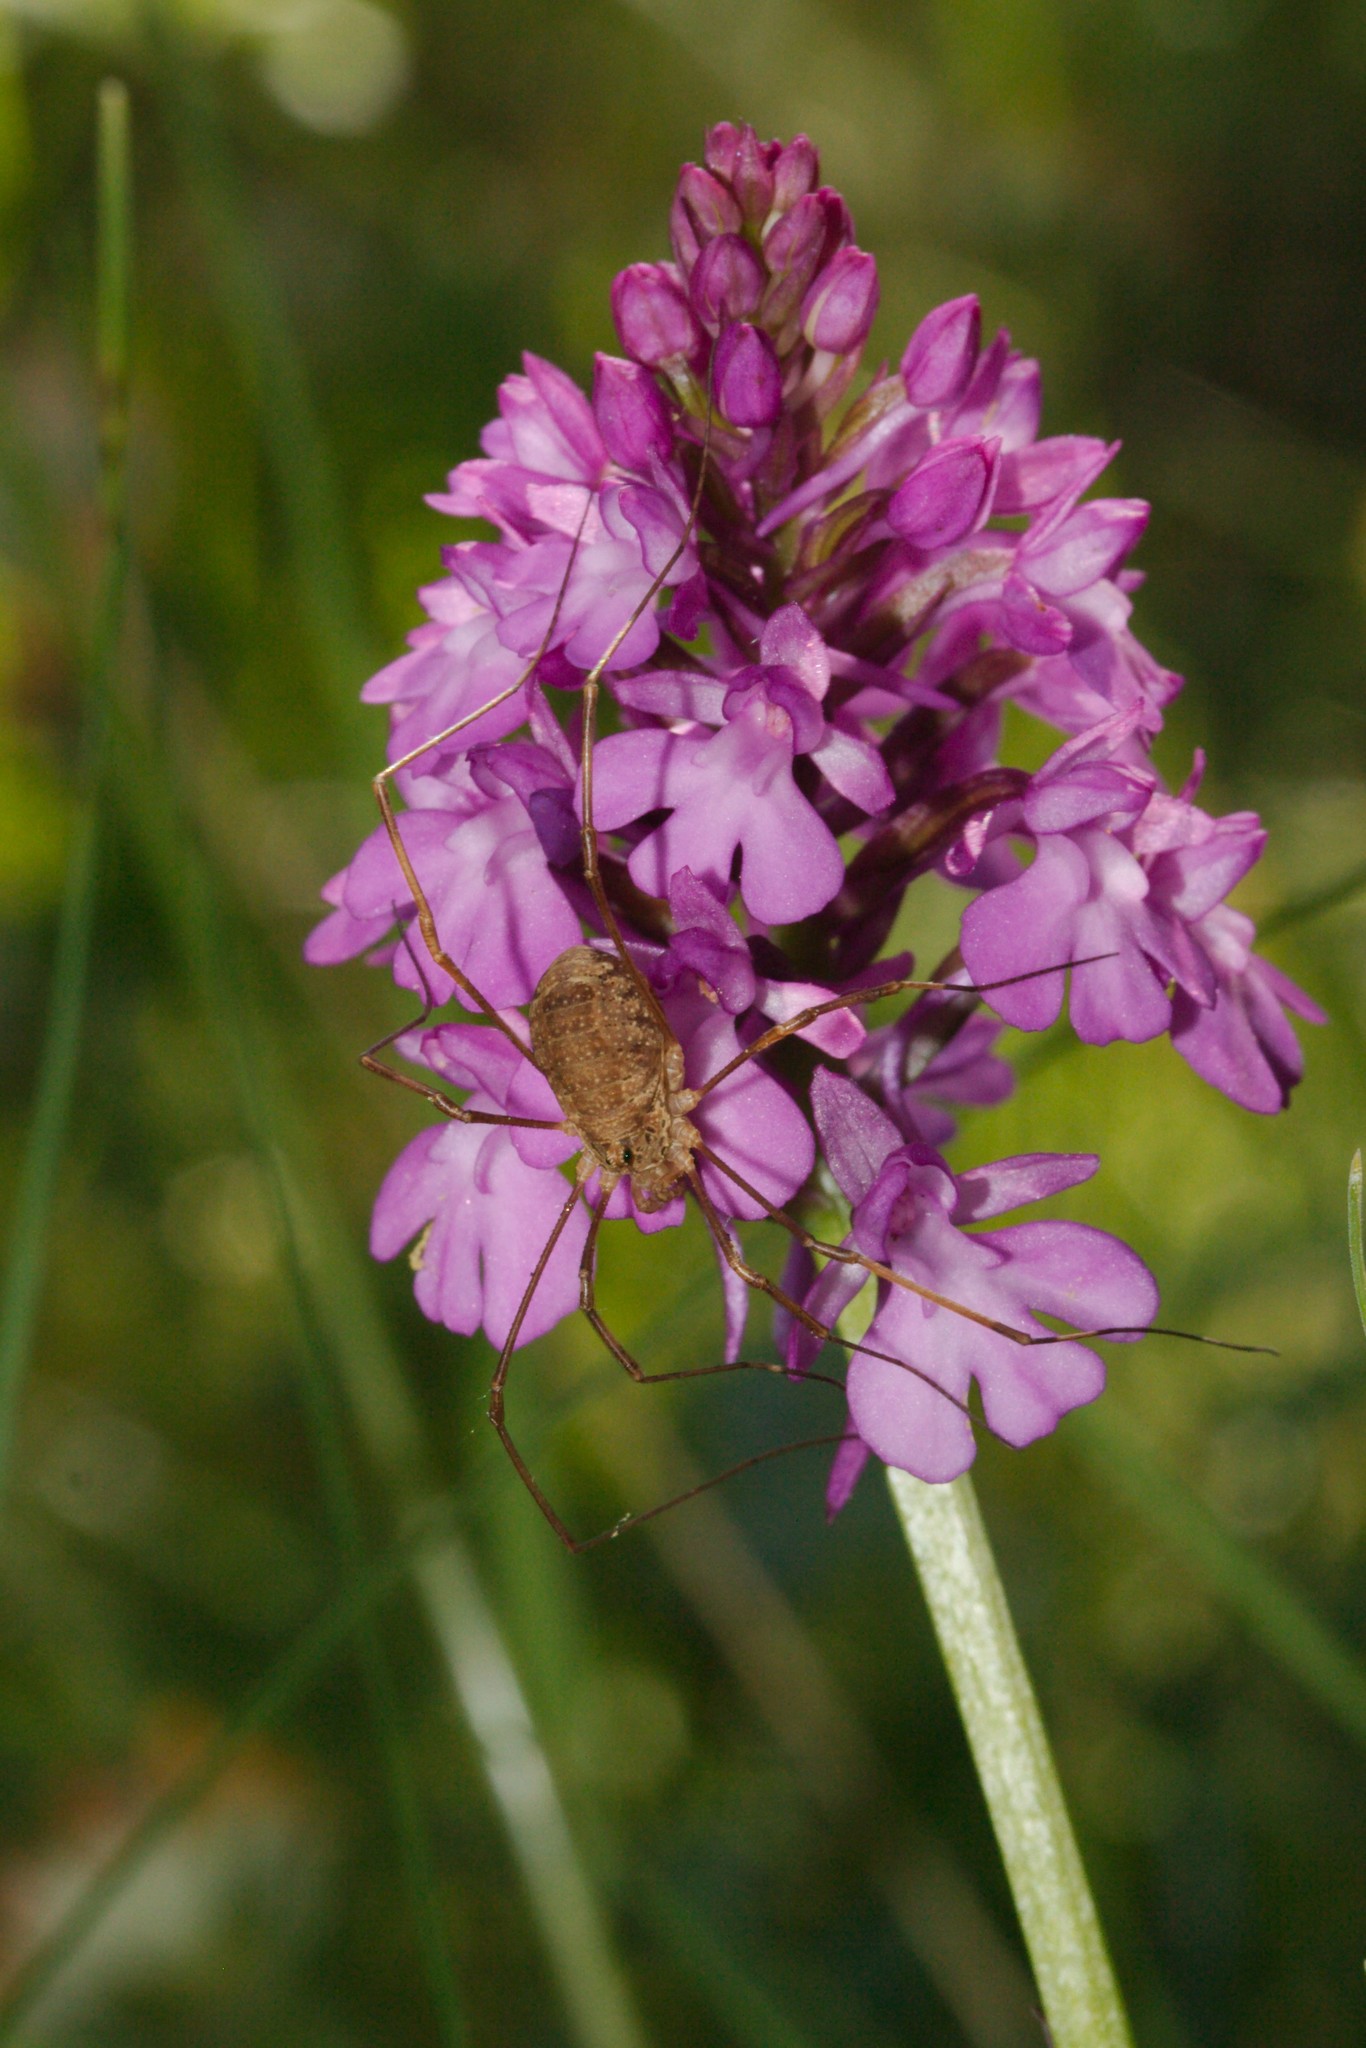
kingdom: Animalia
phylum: Arthropoda
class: Arachnida
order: Opiliones
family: Phalangiidae
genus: Rilaena
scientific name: Rilaena triangularis
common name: Spring harvestman
